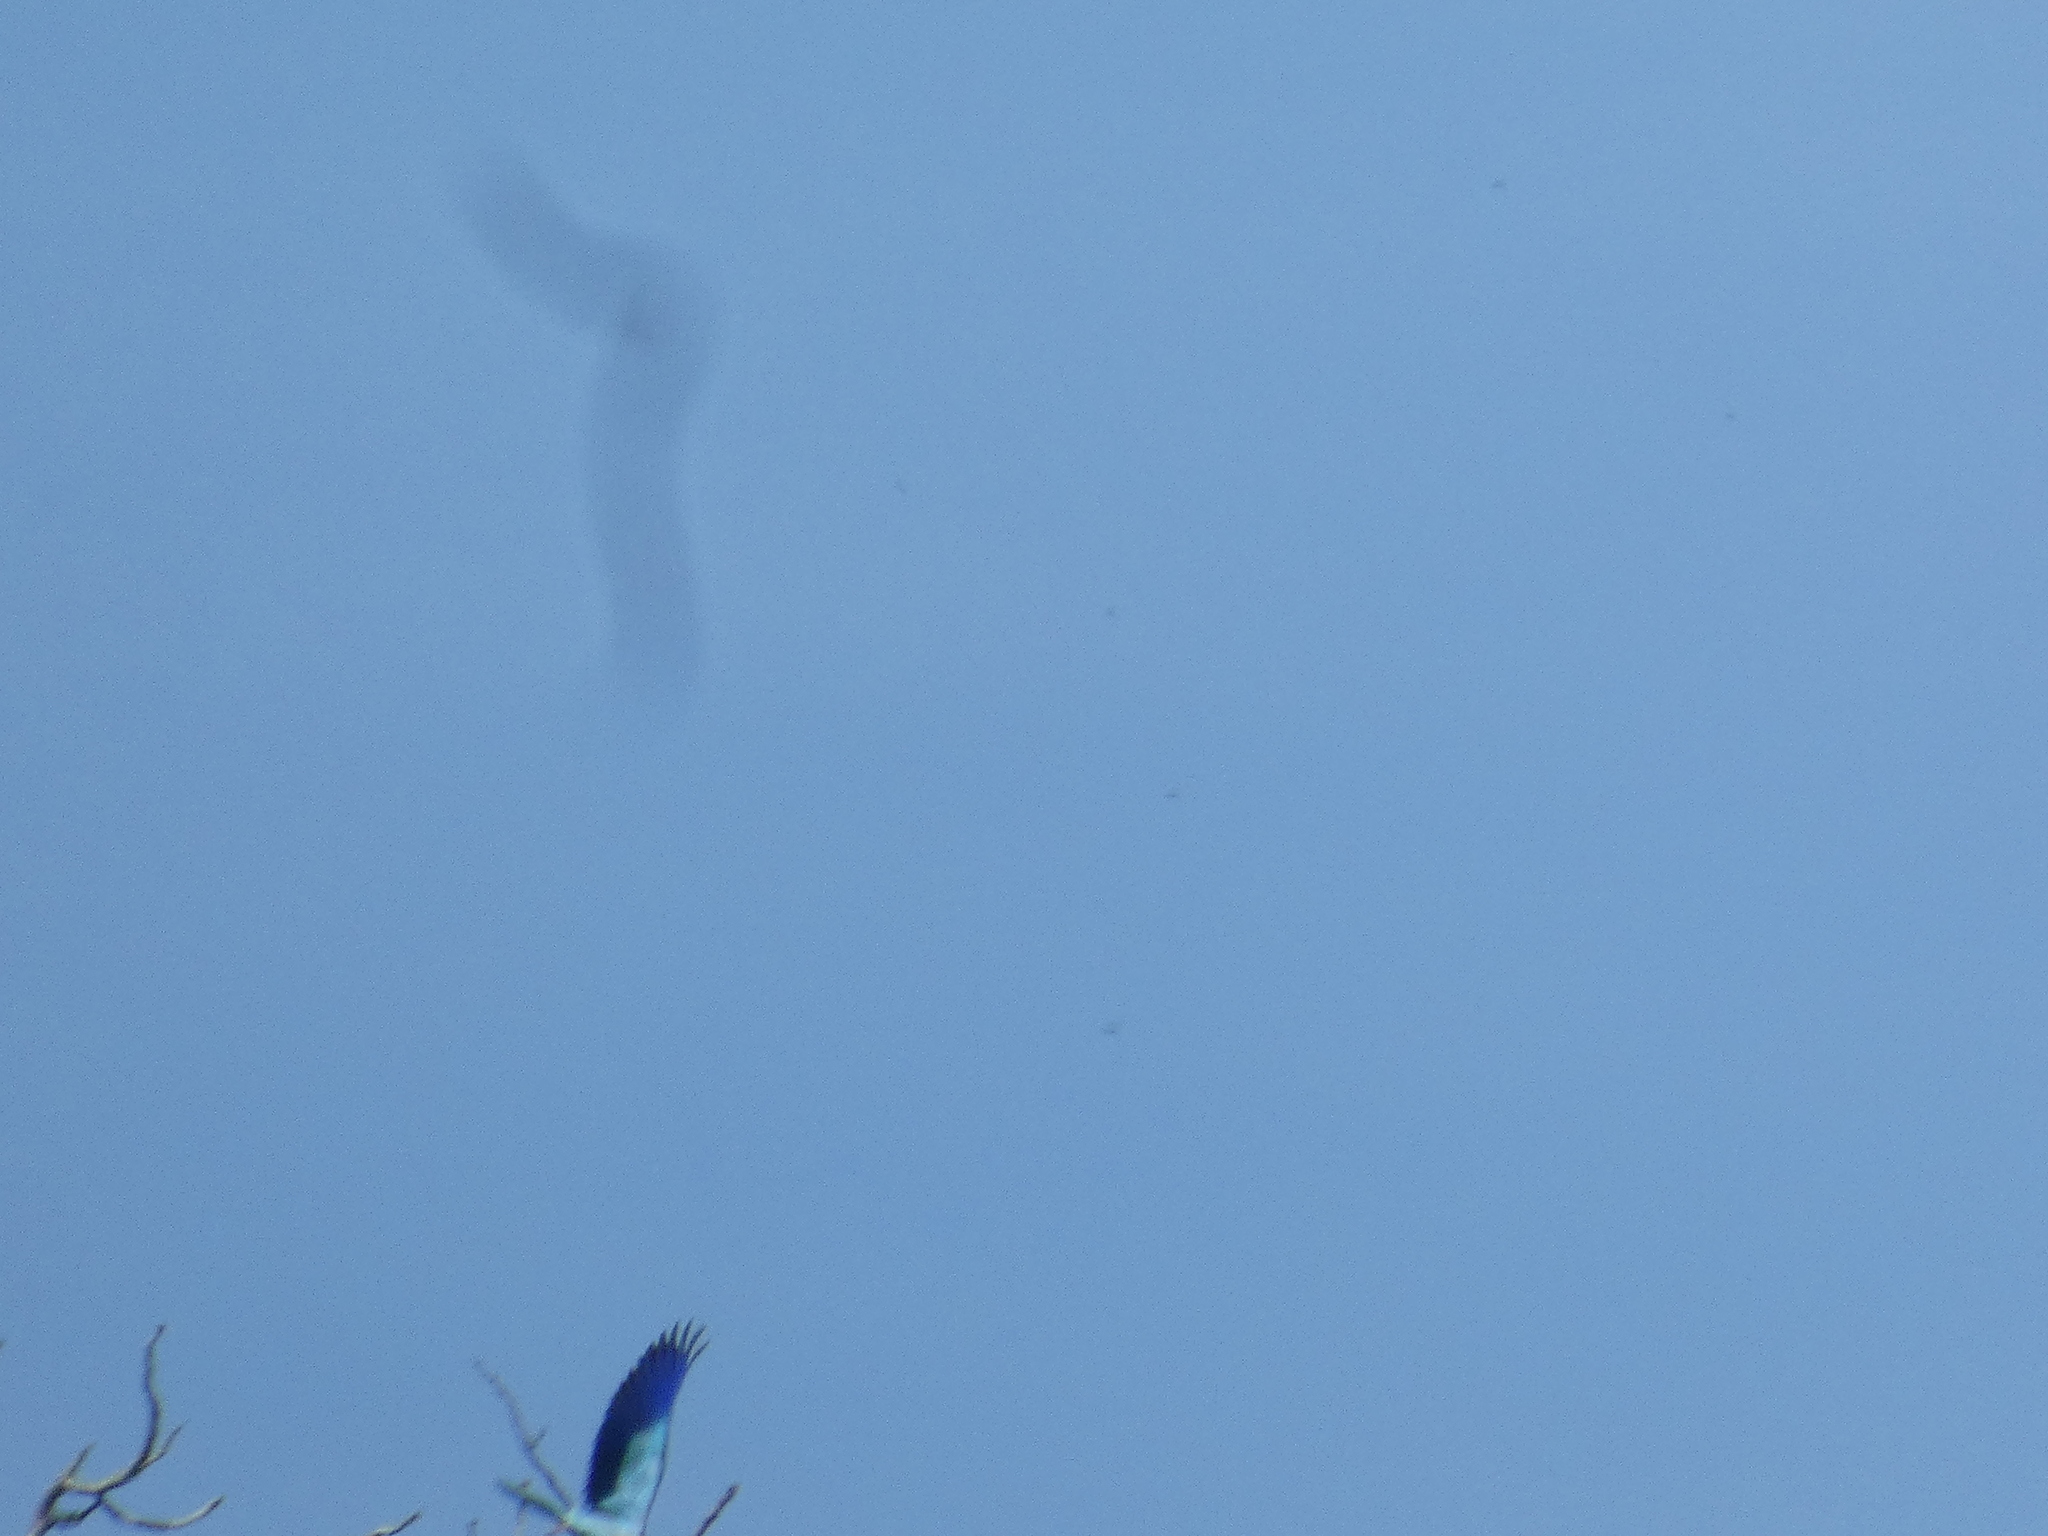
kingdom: Animalia
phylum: Chordata
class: Aves
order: Coraciiformes
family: Coraciidae
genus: Coracias
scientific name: Coracias garrulus
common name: European roller
